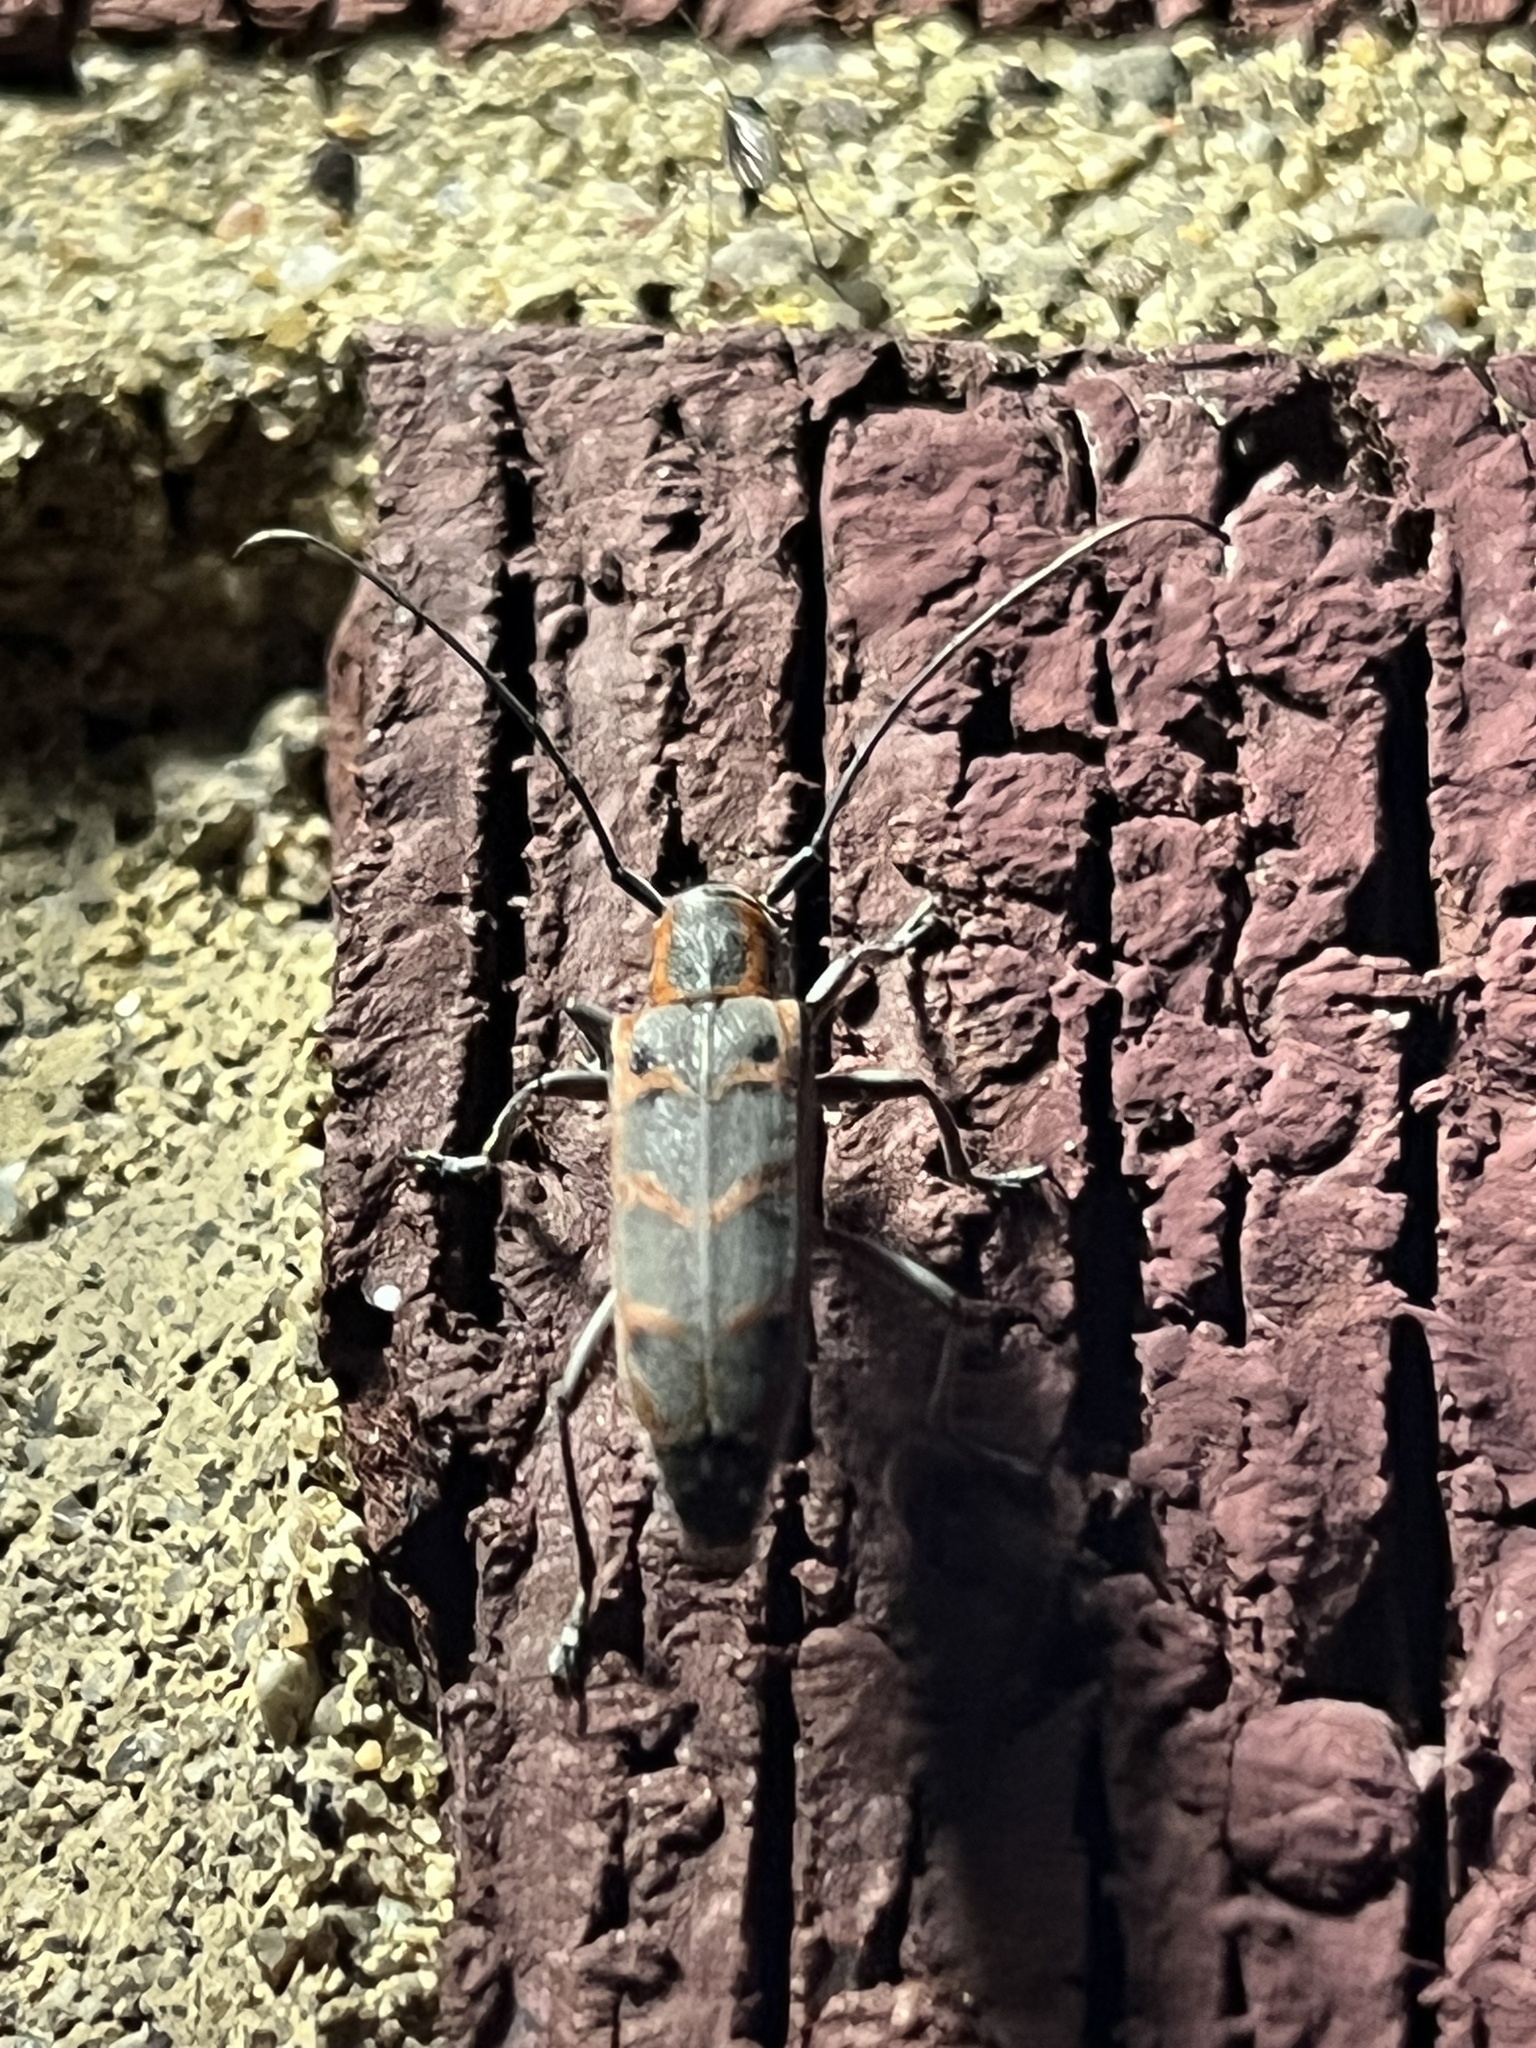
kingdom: Animalia
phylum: Arthropoda
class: Insecta
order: Coleoptera
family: Cerambycidae
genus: Saperda
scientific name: Saperda tridentata
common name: Elm borer
